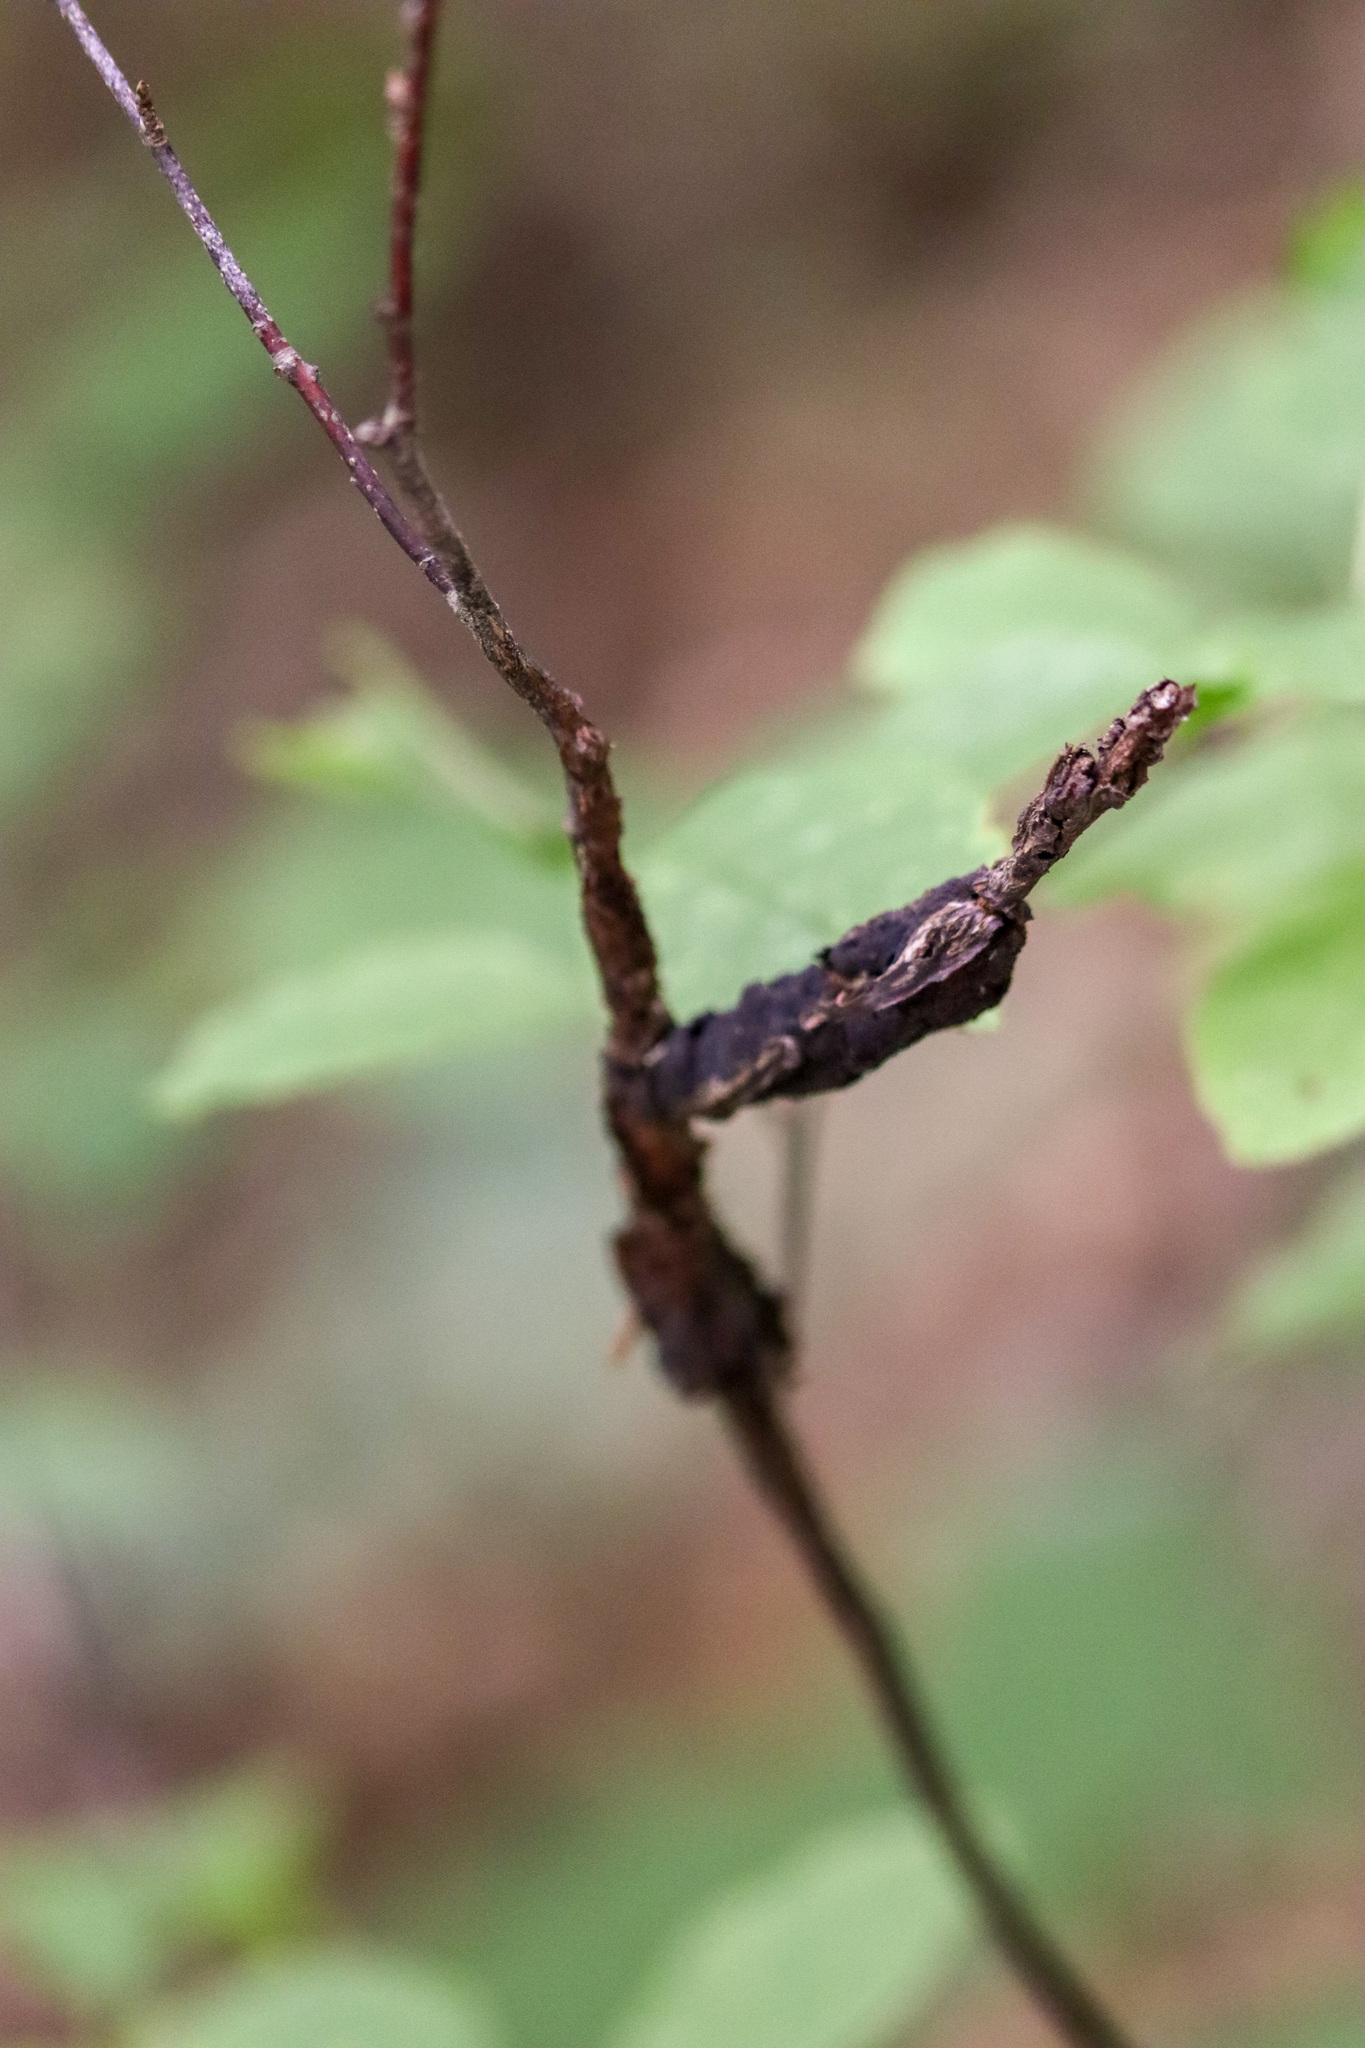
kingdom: Fungi
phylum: Ascomycota
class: Dothideomycetes
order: Venturiales
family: Venturiaceae
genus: Apiosporina
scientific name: Apiosporina morbosa
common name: Black knot
